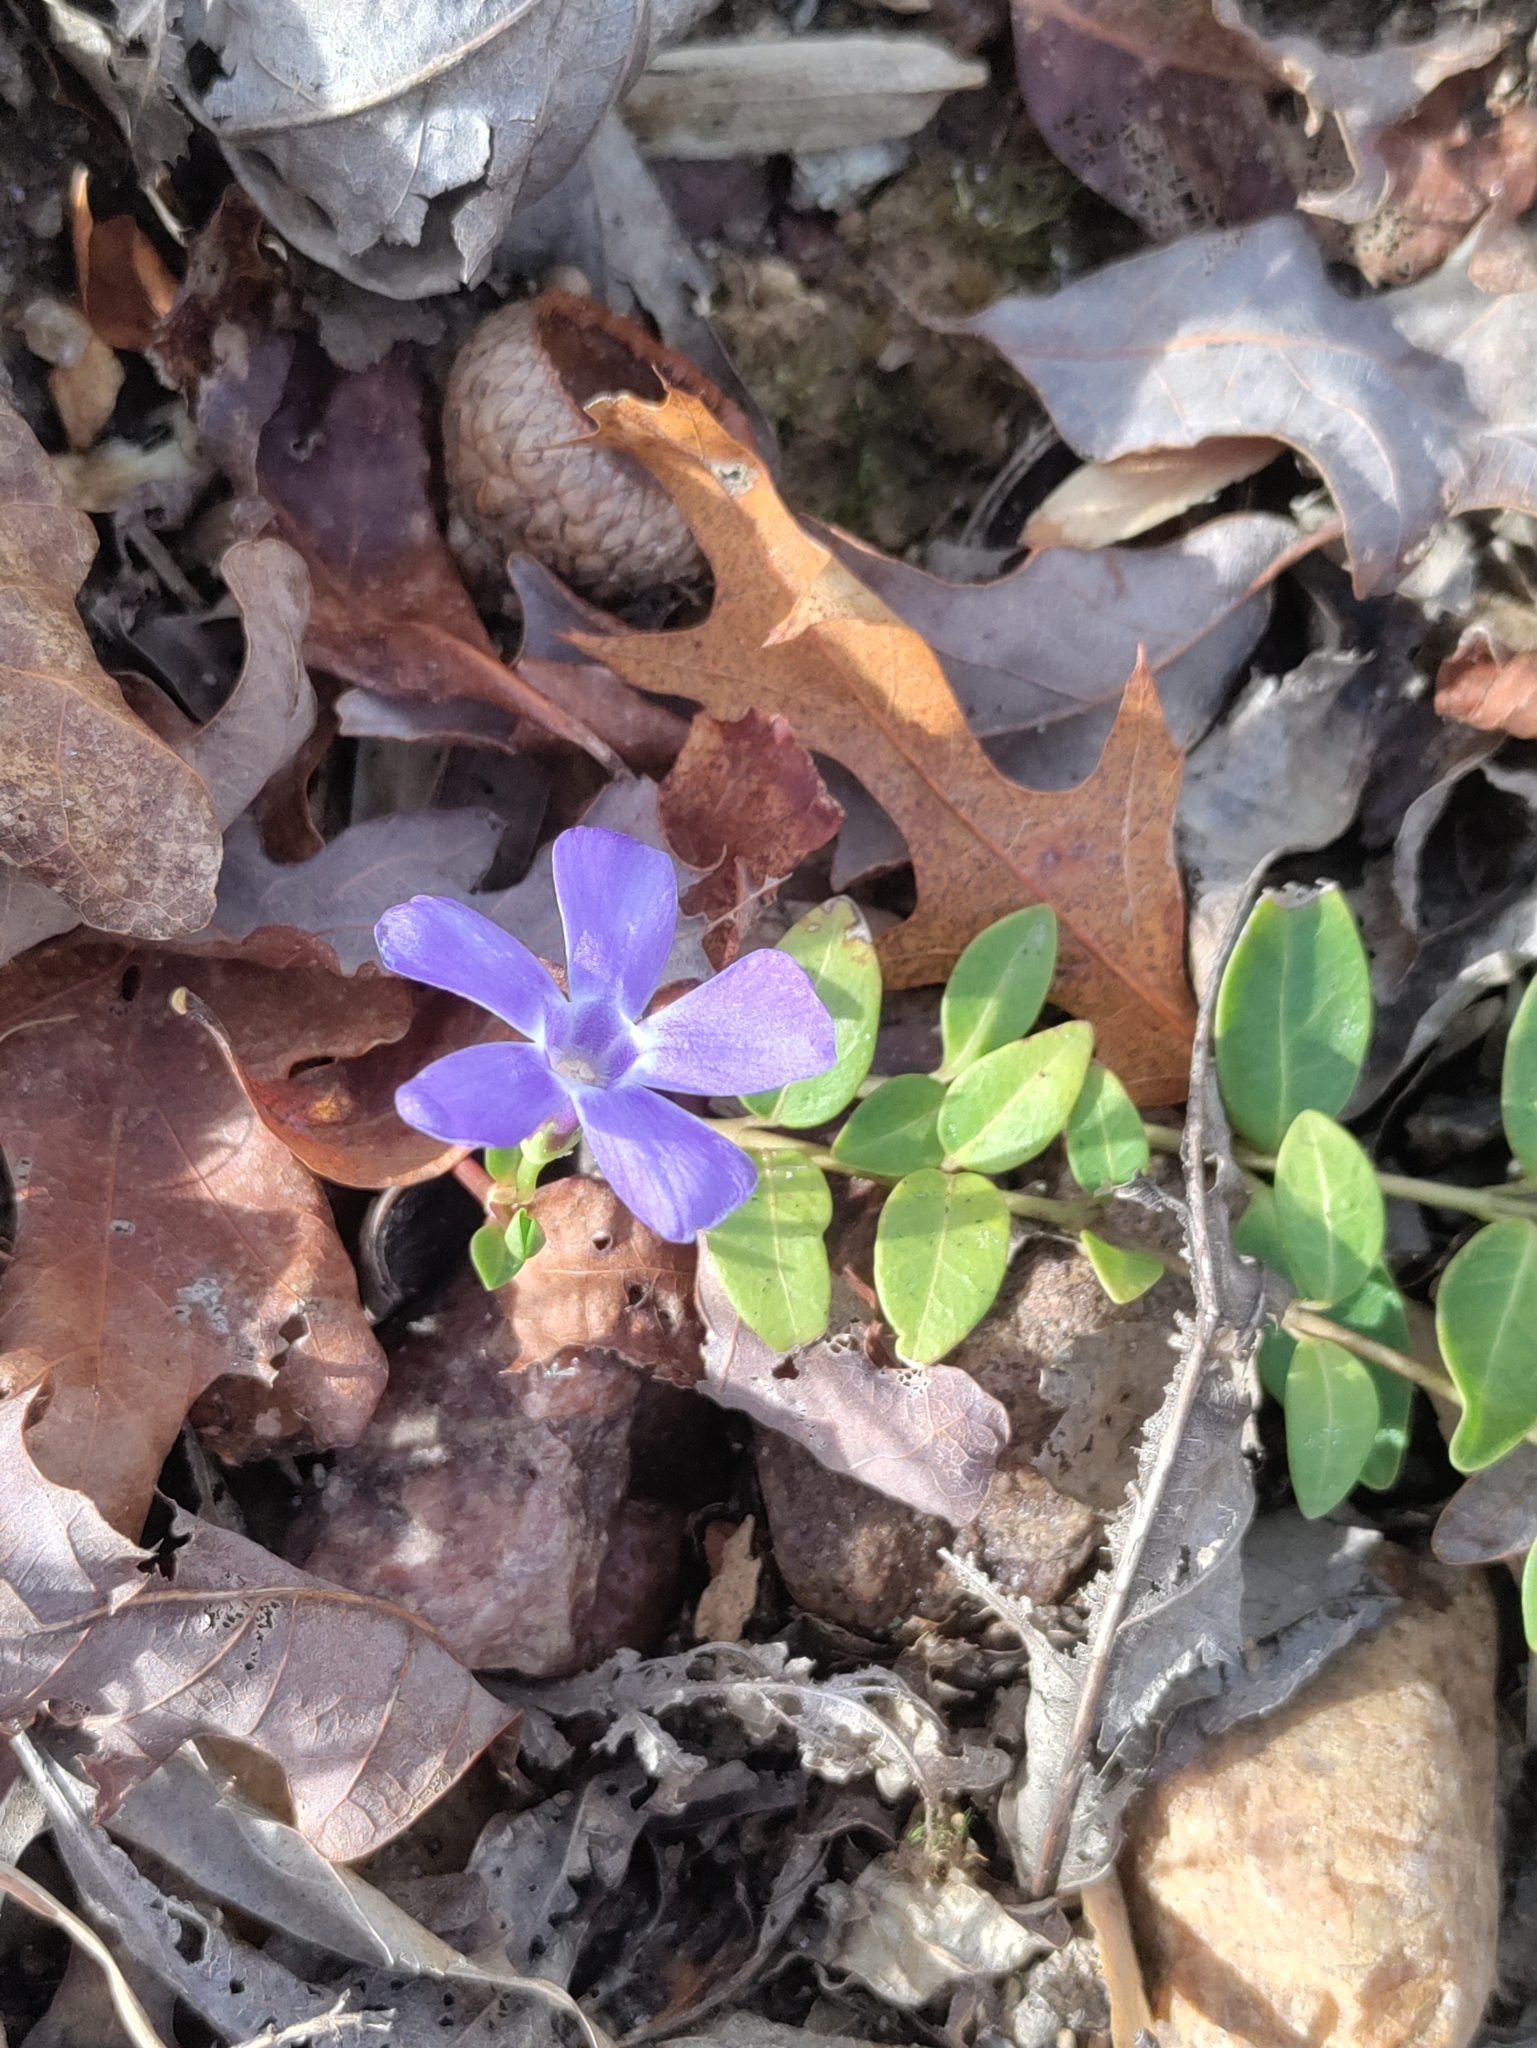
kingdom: Plantae
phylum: Tracheophyta
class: Magnoliopsida
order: Gentianales
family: Apocynaceae
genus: Vinca
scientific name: Vinca minor
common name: Lesser periwinkle
